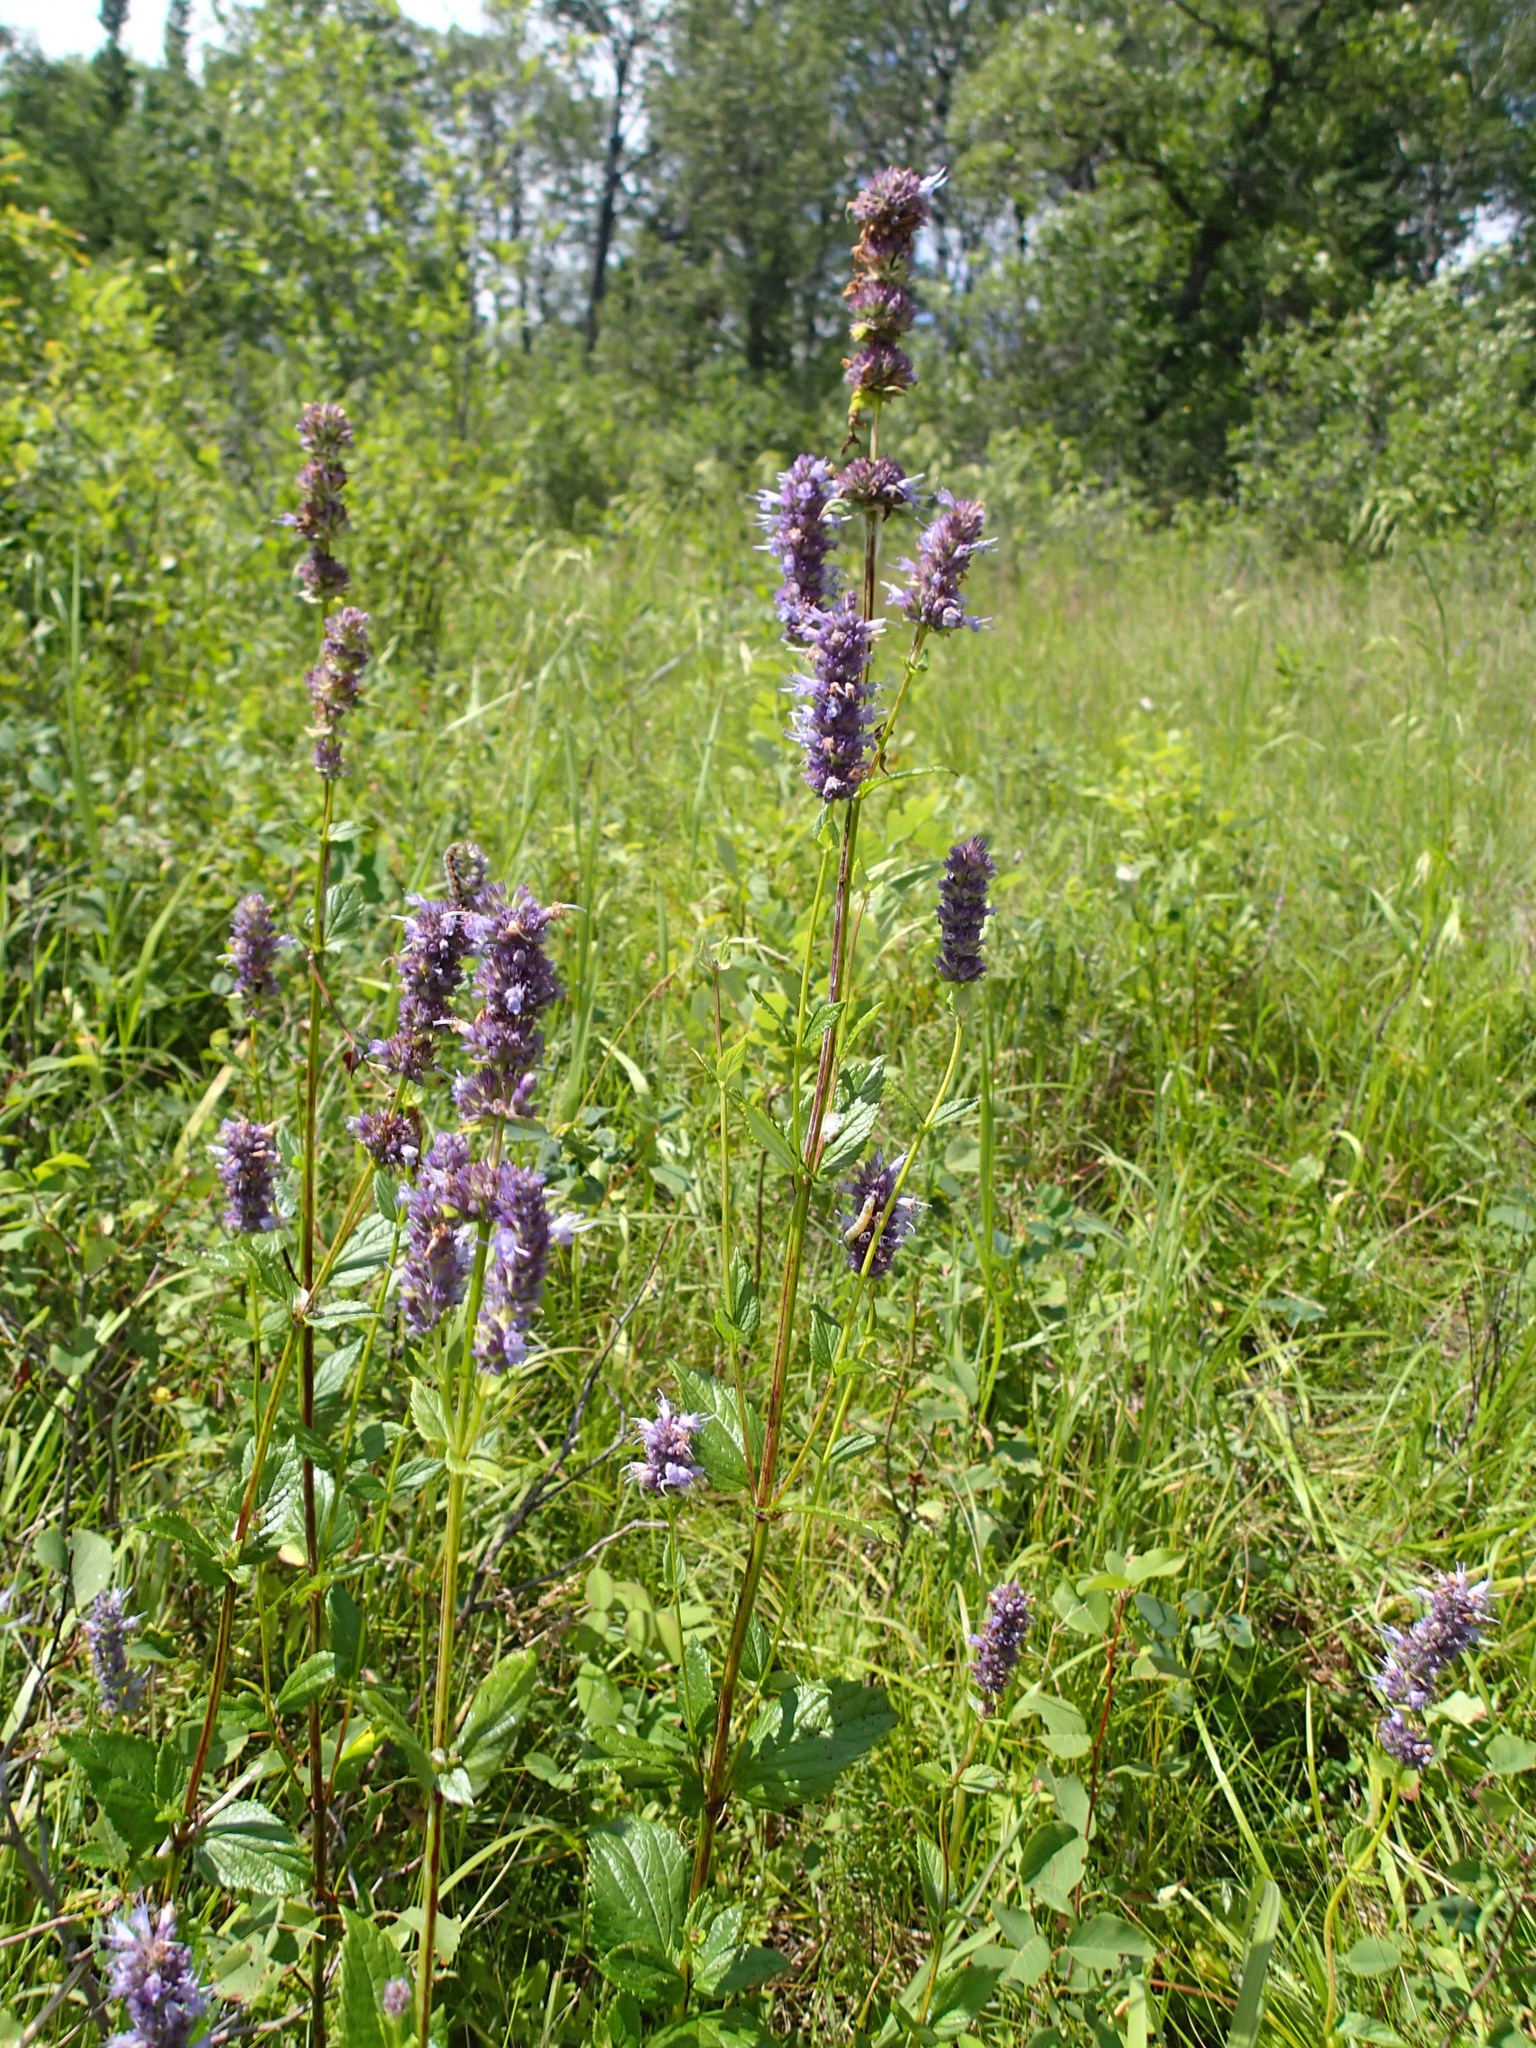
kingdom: Plantae
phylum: Tracheophyta
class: Magnoliopsida
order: Lamiales
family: Lamiaceae
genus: Agastache
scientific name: Agastache foeniculum
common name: Anise hyssop
